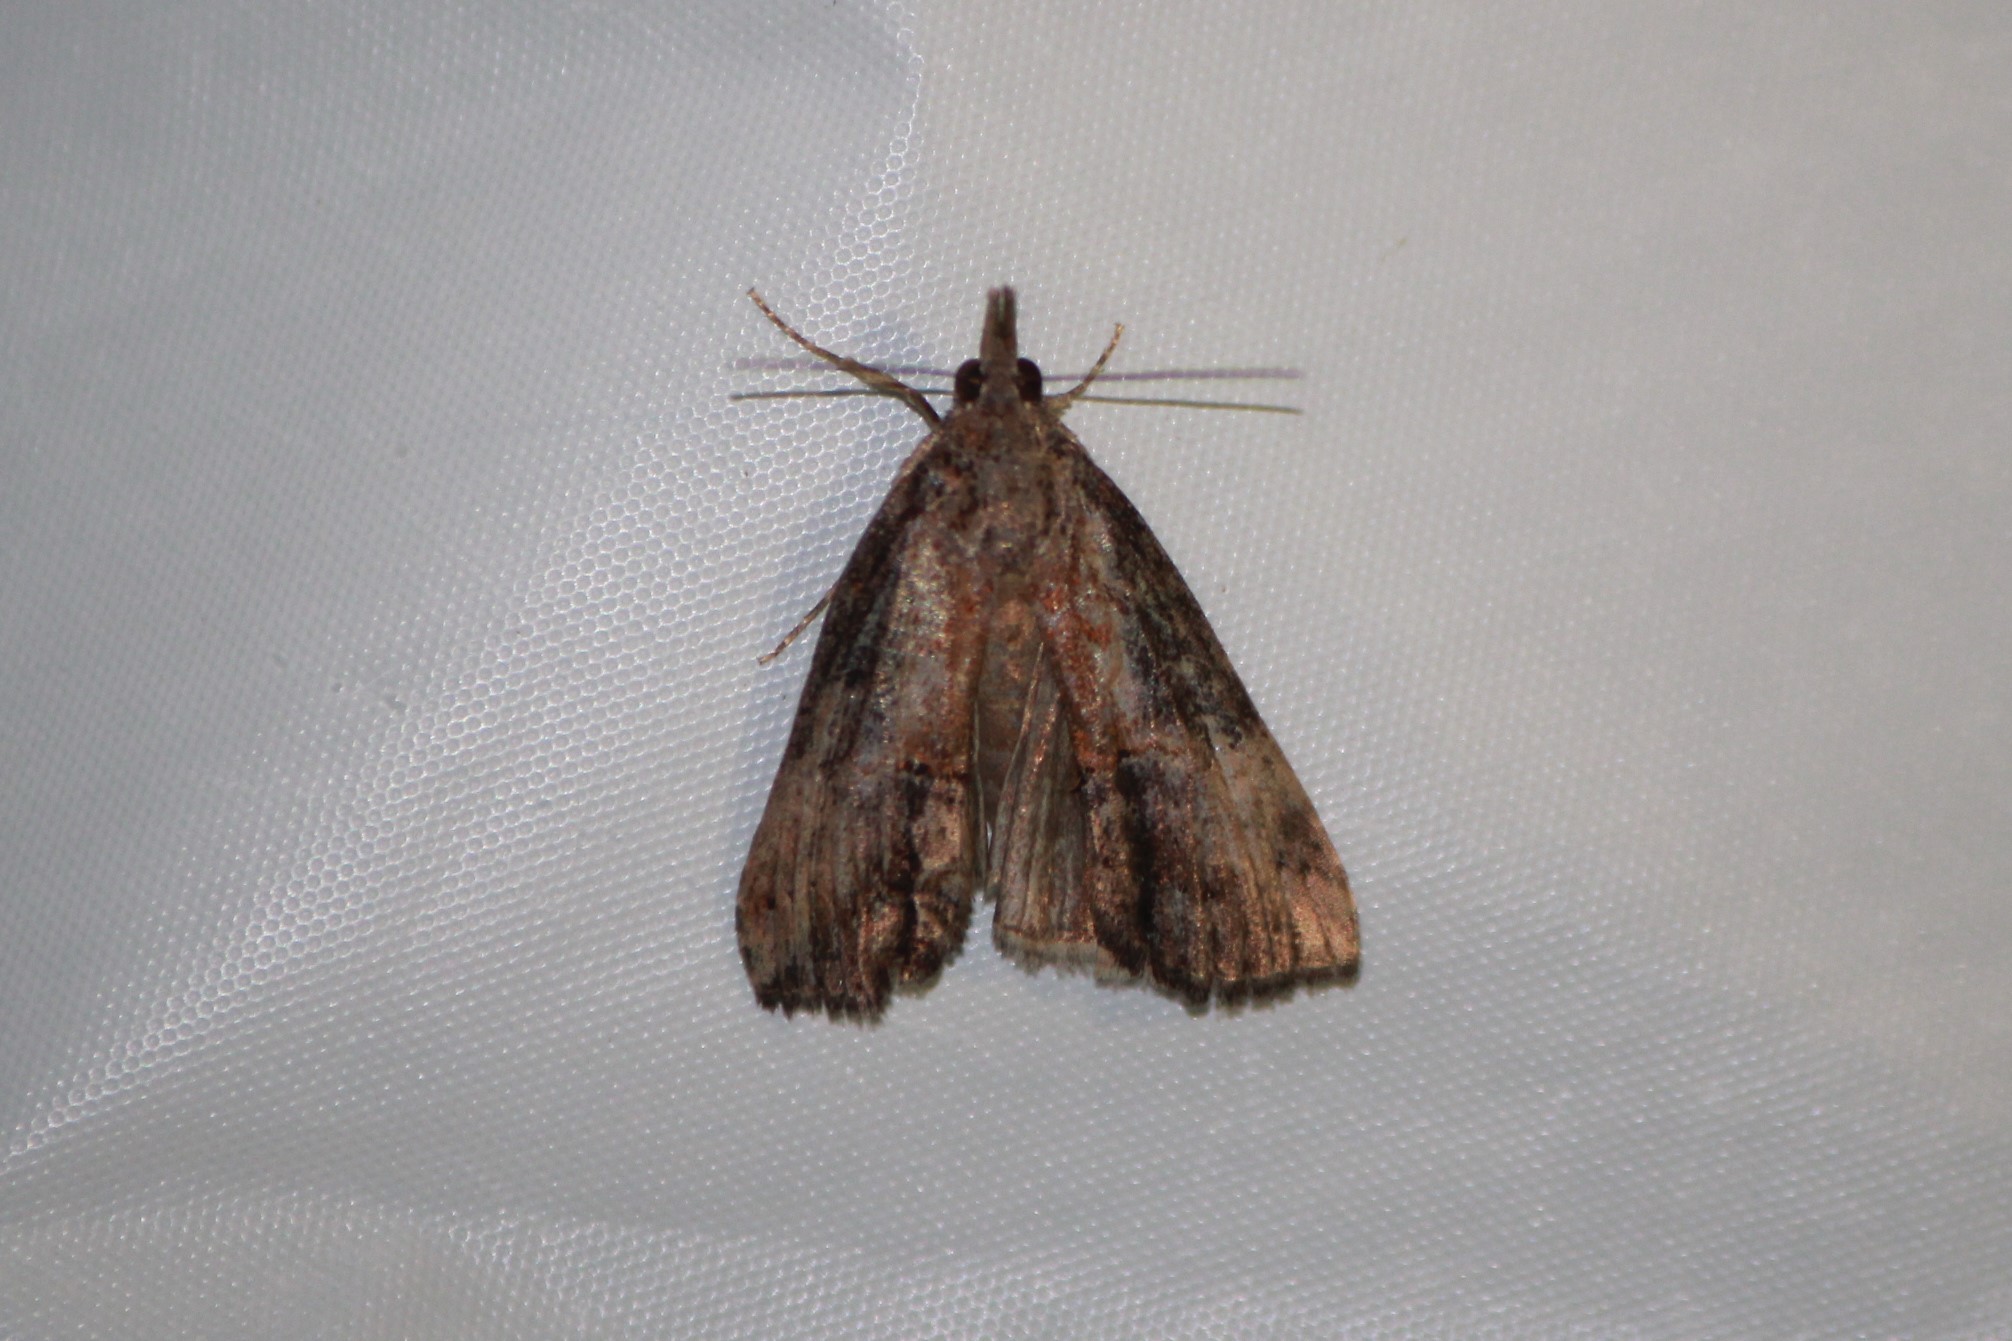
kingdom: Animalia
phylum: Arthropoda
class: Insecta
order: Lepidoptera
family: Erebidae
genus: Hypena
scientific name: Hypena scabra
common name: Green cloverworm
